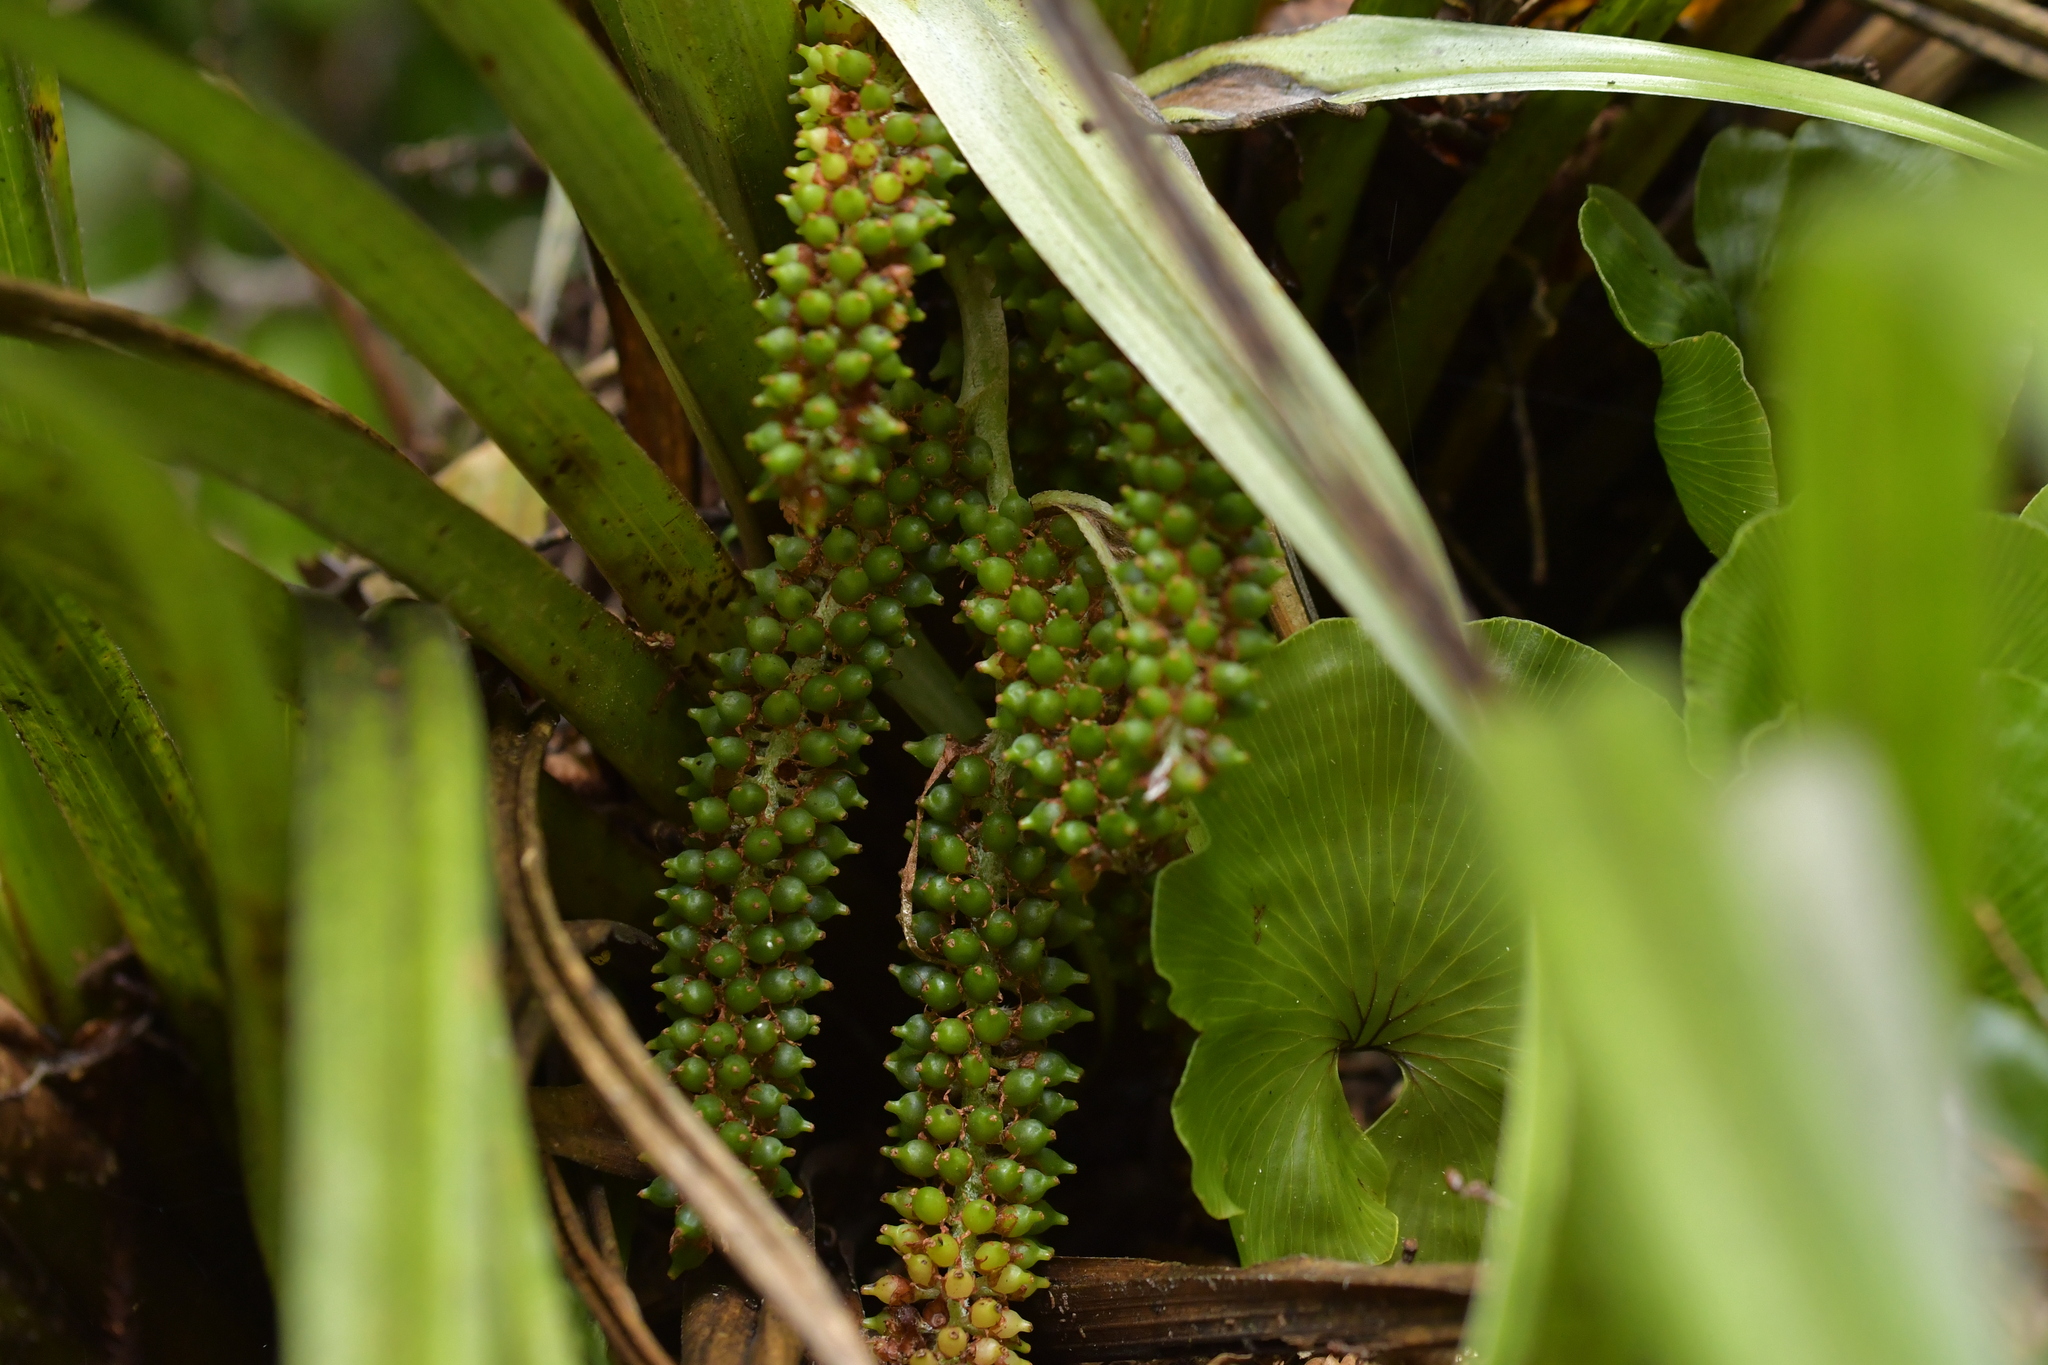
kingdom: Plantae
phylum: Tracheophyta
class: Liliopsida
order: Asparagales
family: Asteliaceae
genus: Astelia
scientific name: Astelia fragrans
